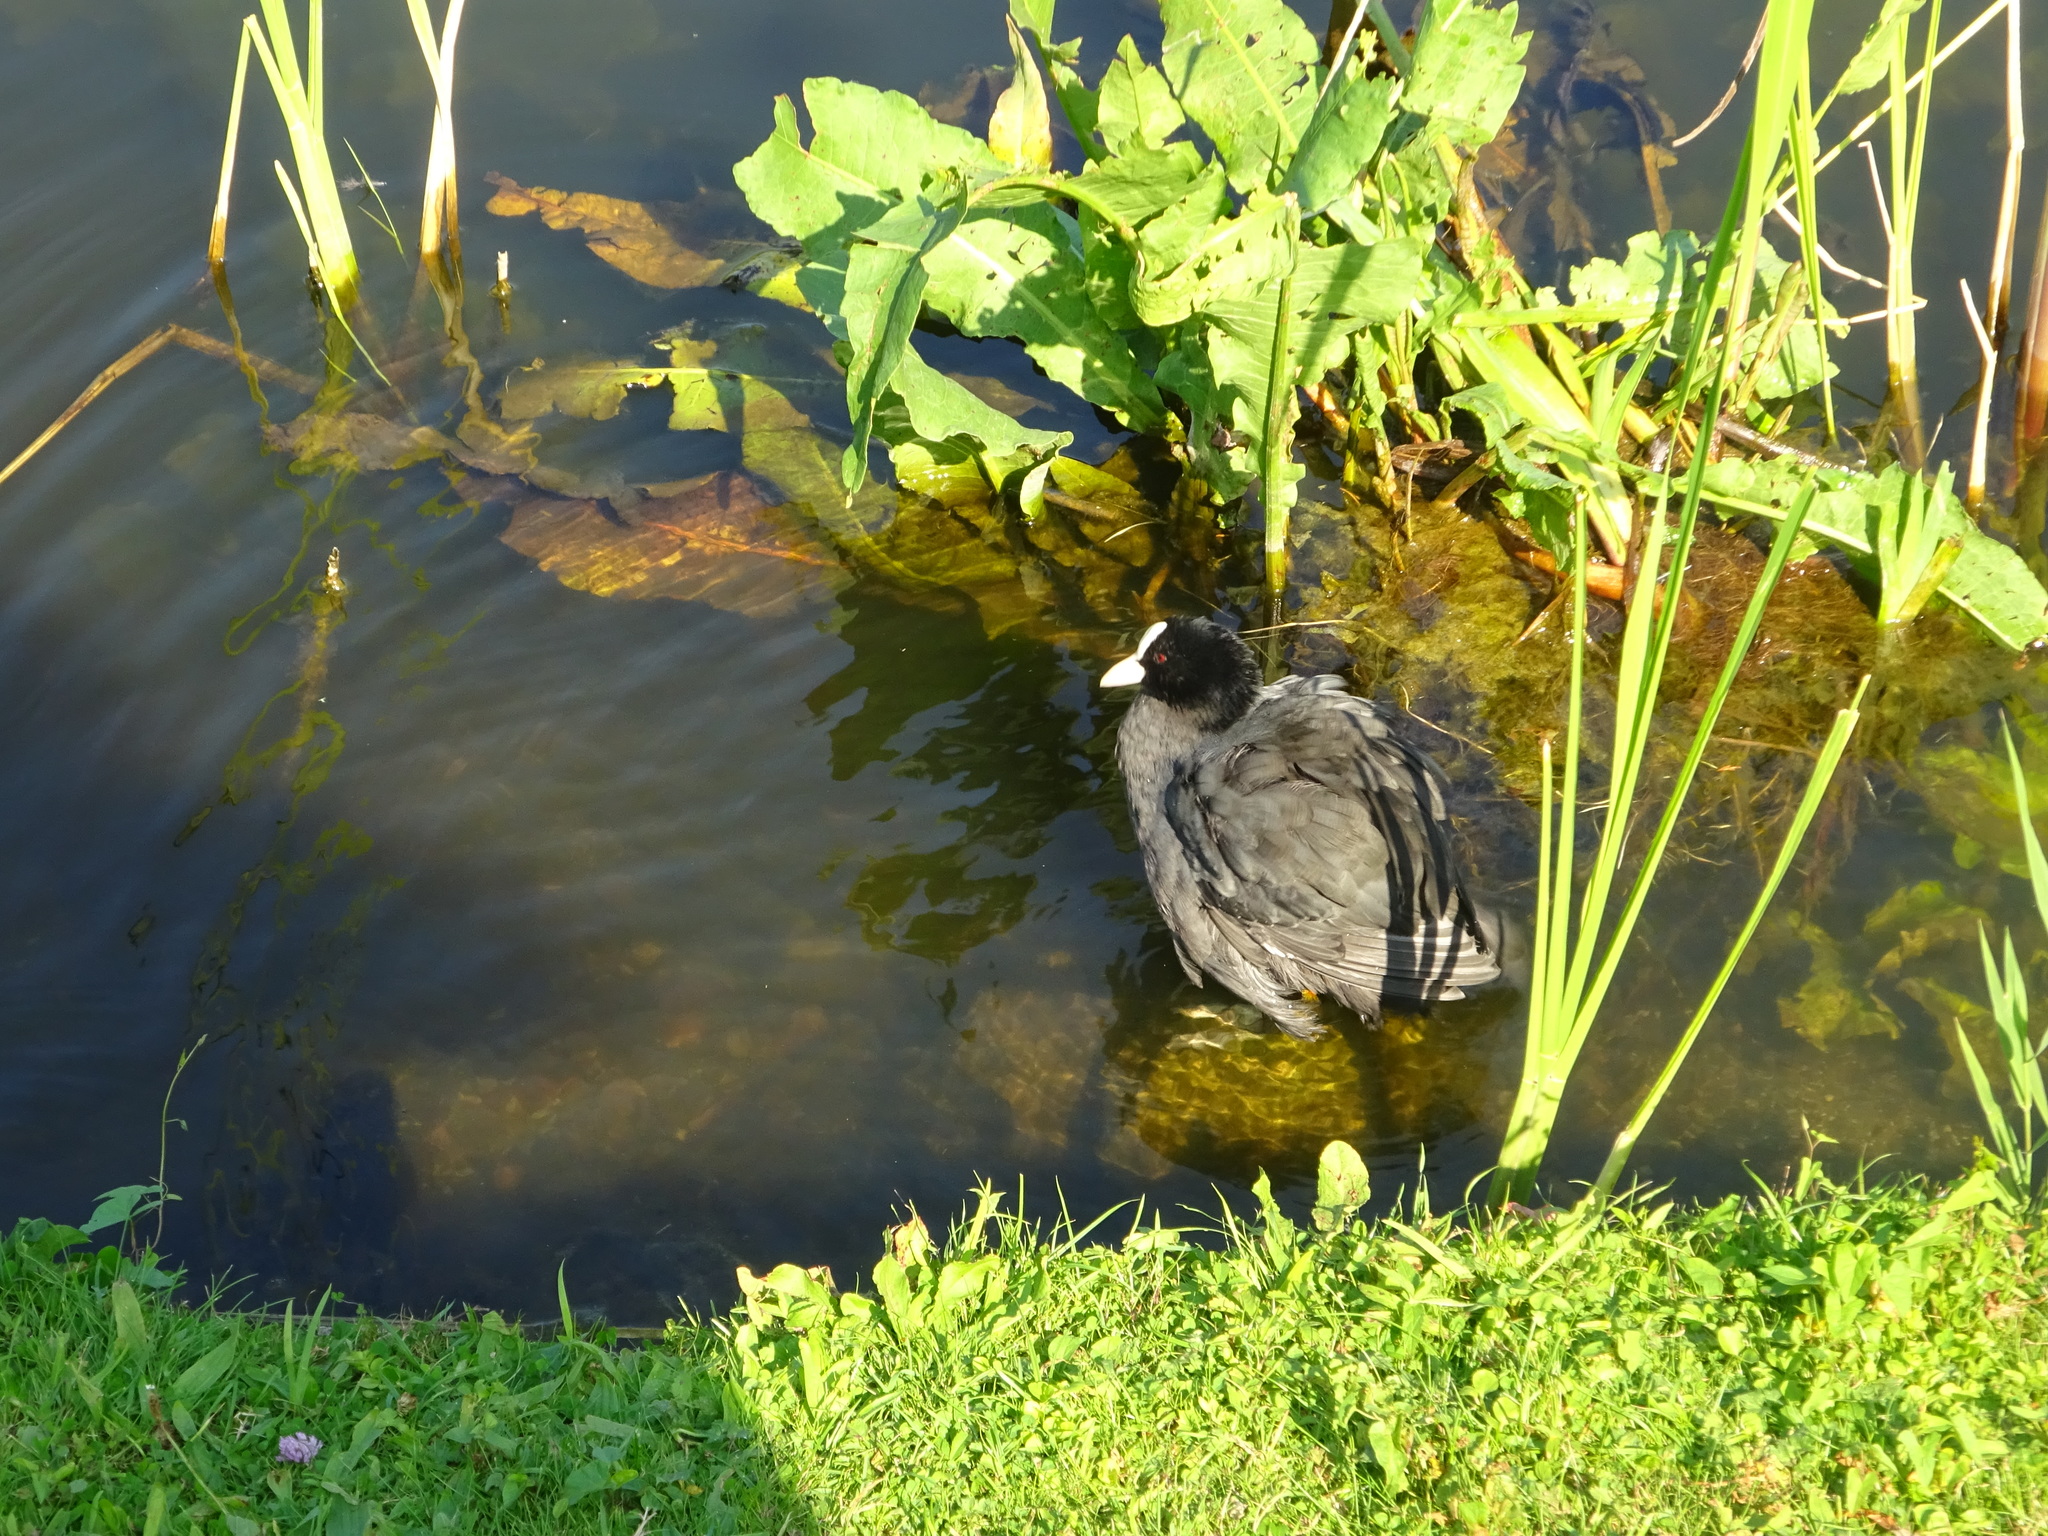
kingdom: Animalia
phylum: Chordata
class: Aves
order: Gruiformes
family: Rallidae
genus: Fulica
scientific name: Fulica atra
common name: Eurasian coot
